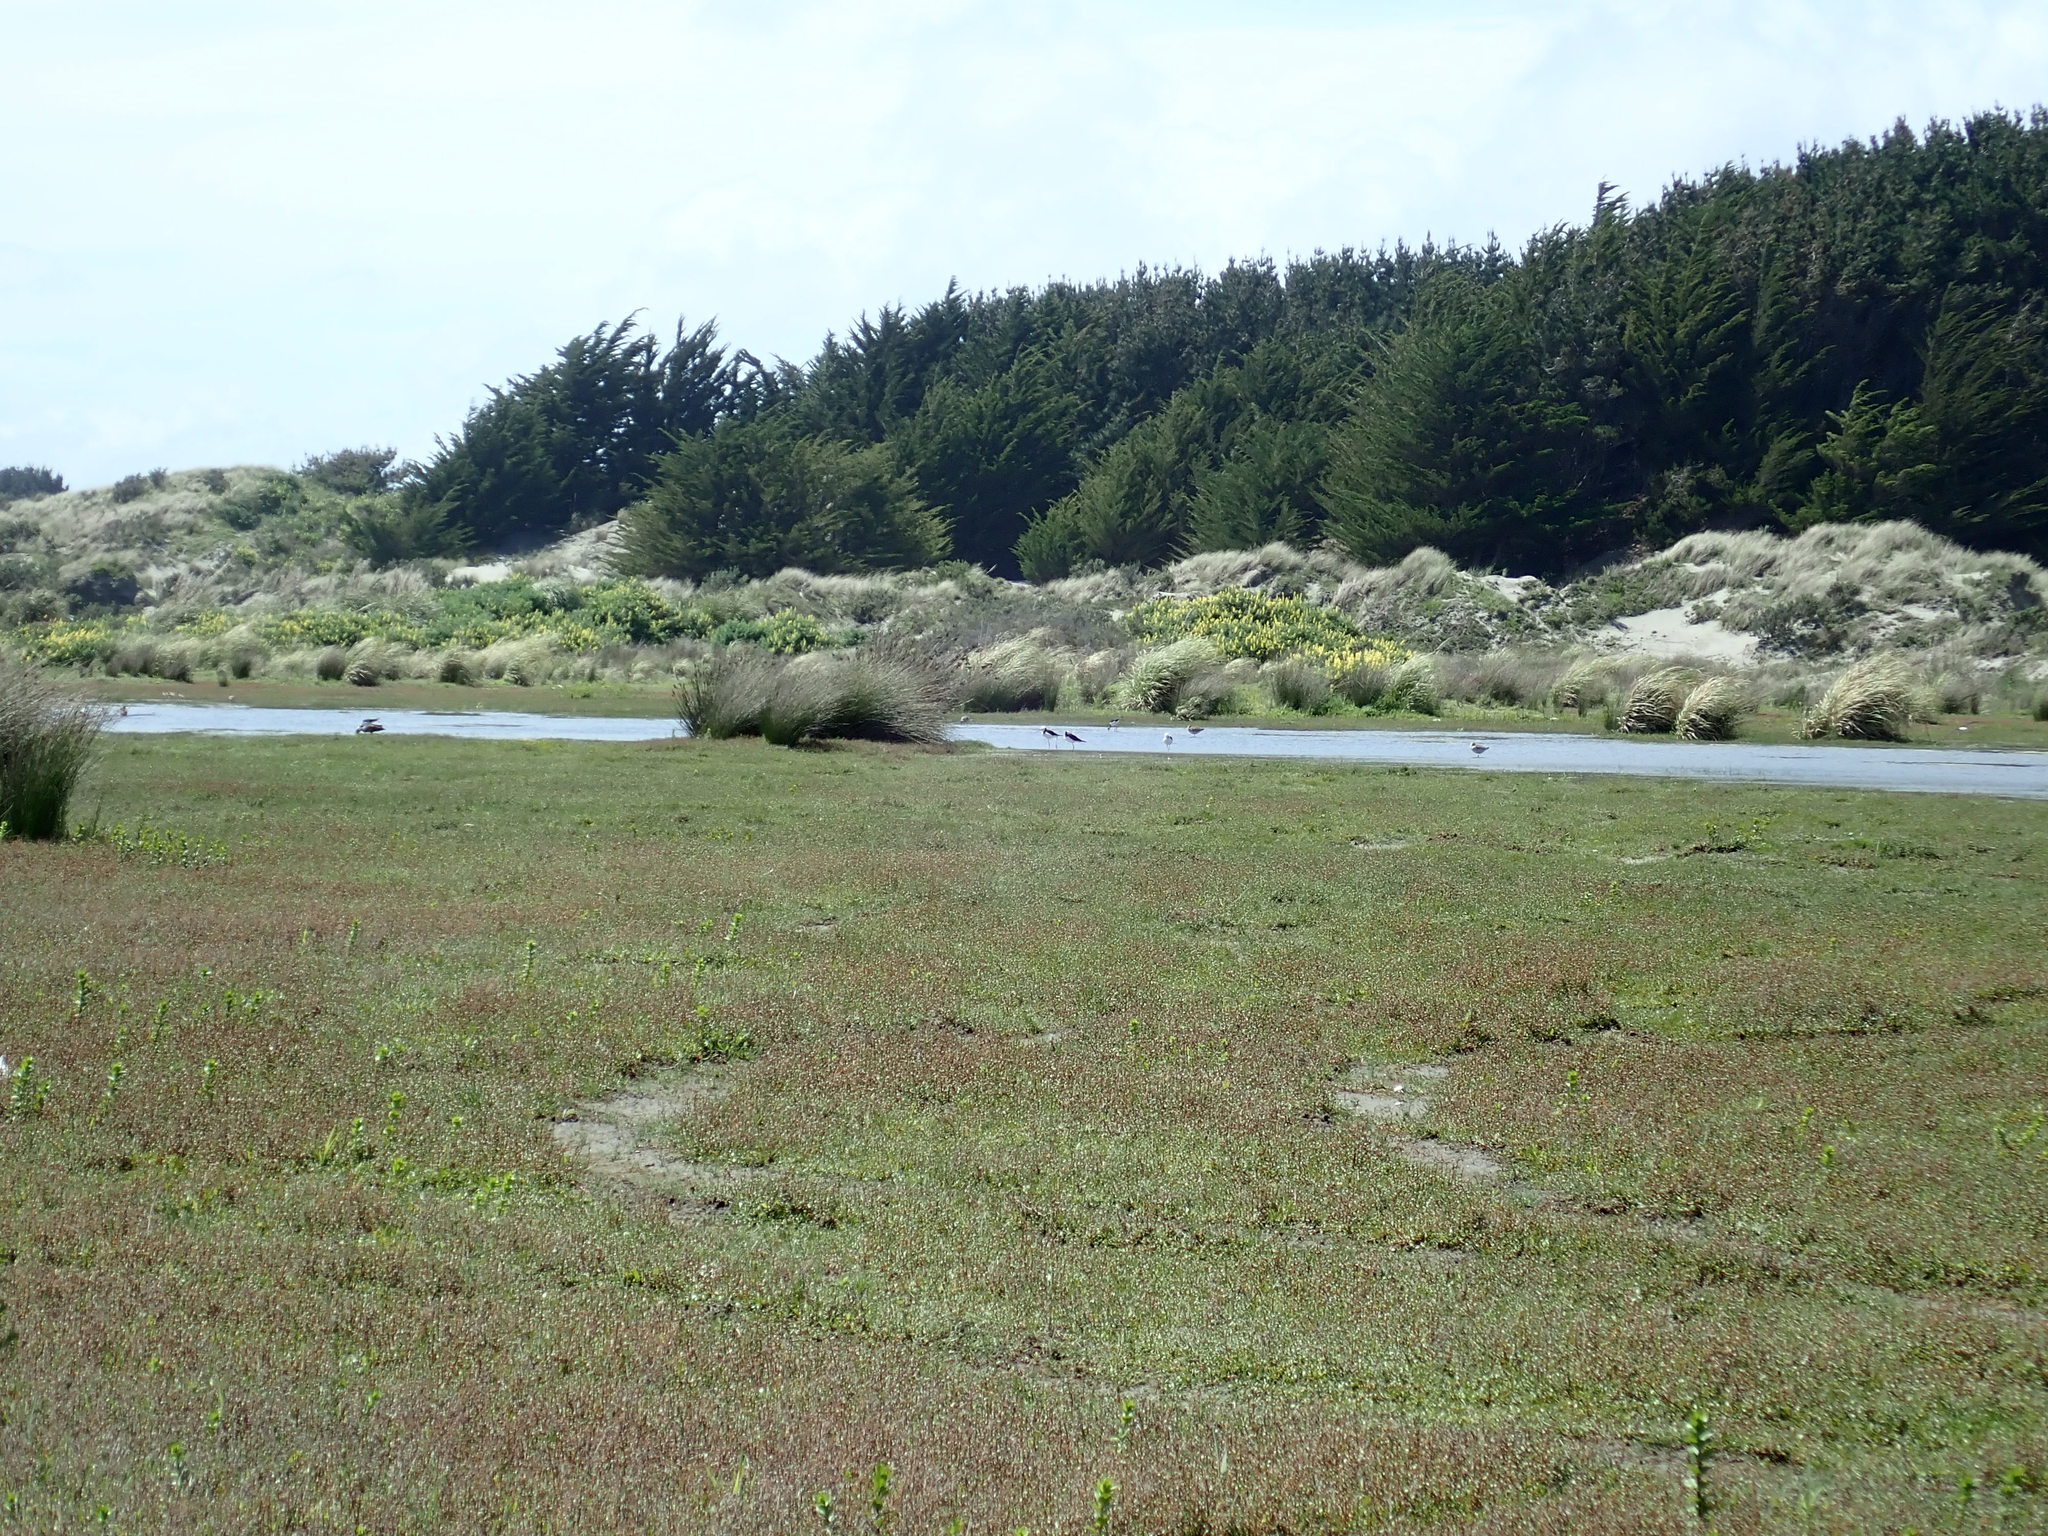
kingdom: Animalia
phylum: Chordata
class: Aves
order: Charadriiformes
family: Recurvirostridae
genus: Himantopus
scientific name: Himantopus leucocephalus
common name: White-headed stilt
